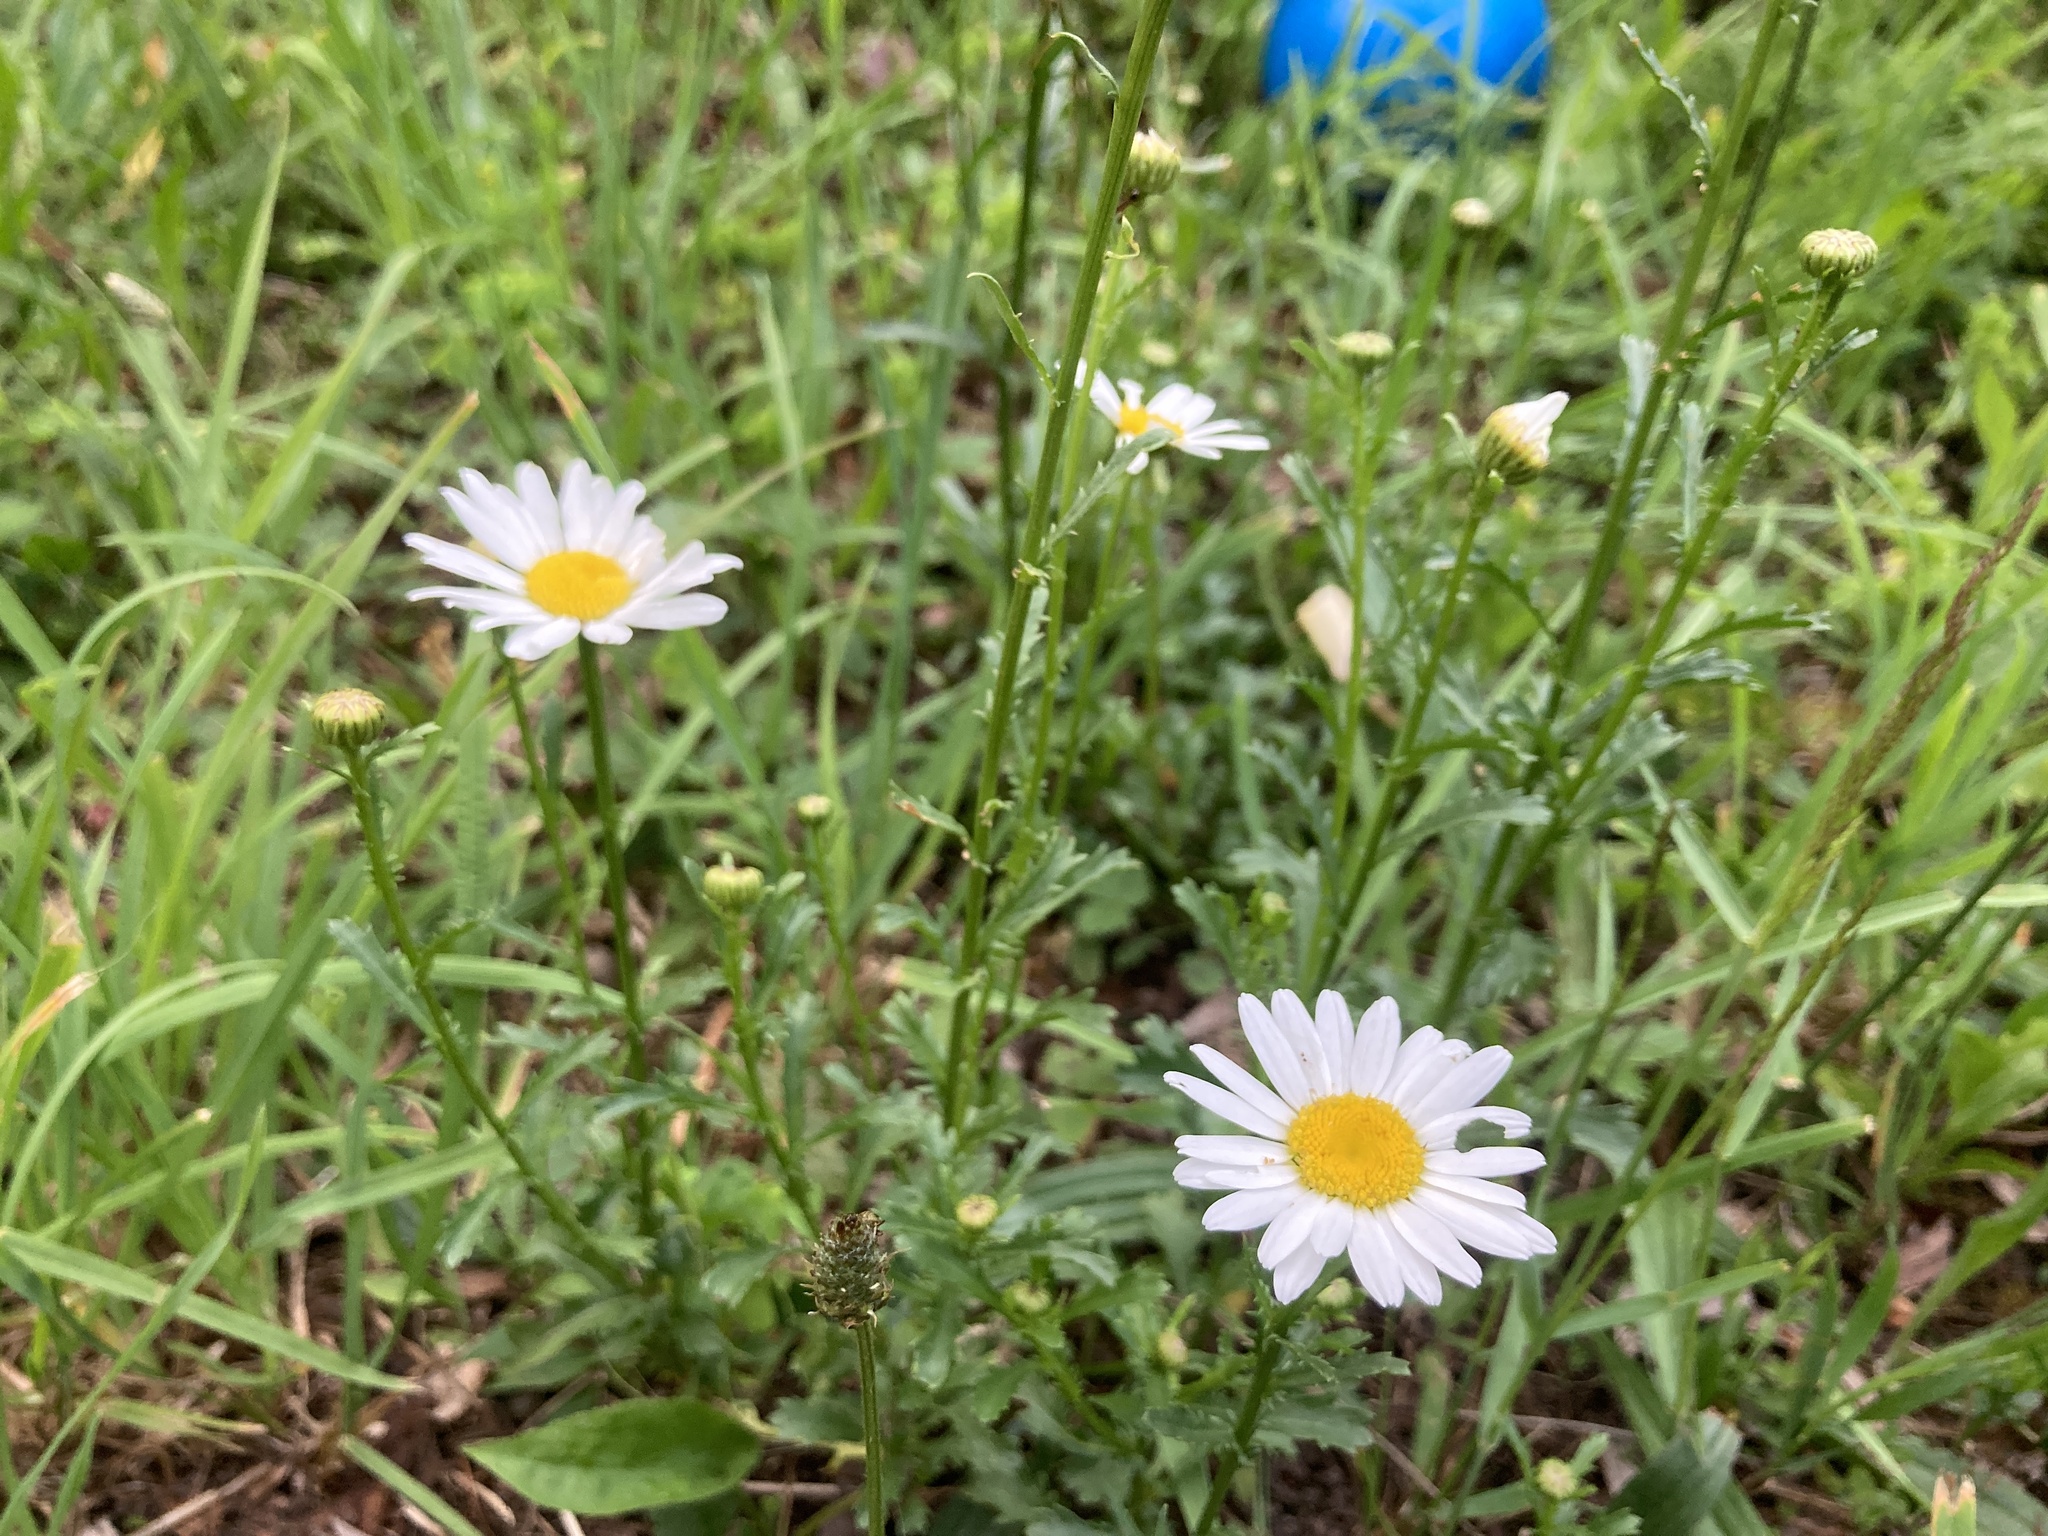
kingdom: Plantae
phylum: Tracheophyta
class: Magnoliopsida
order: Asterales
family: Asteraceae
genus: Leucanthemum
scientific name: Leucanthemum vulgare
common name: Oxeye daisy
